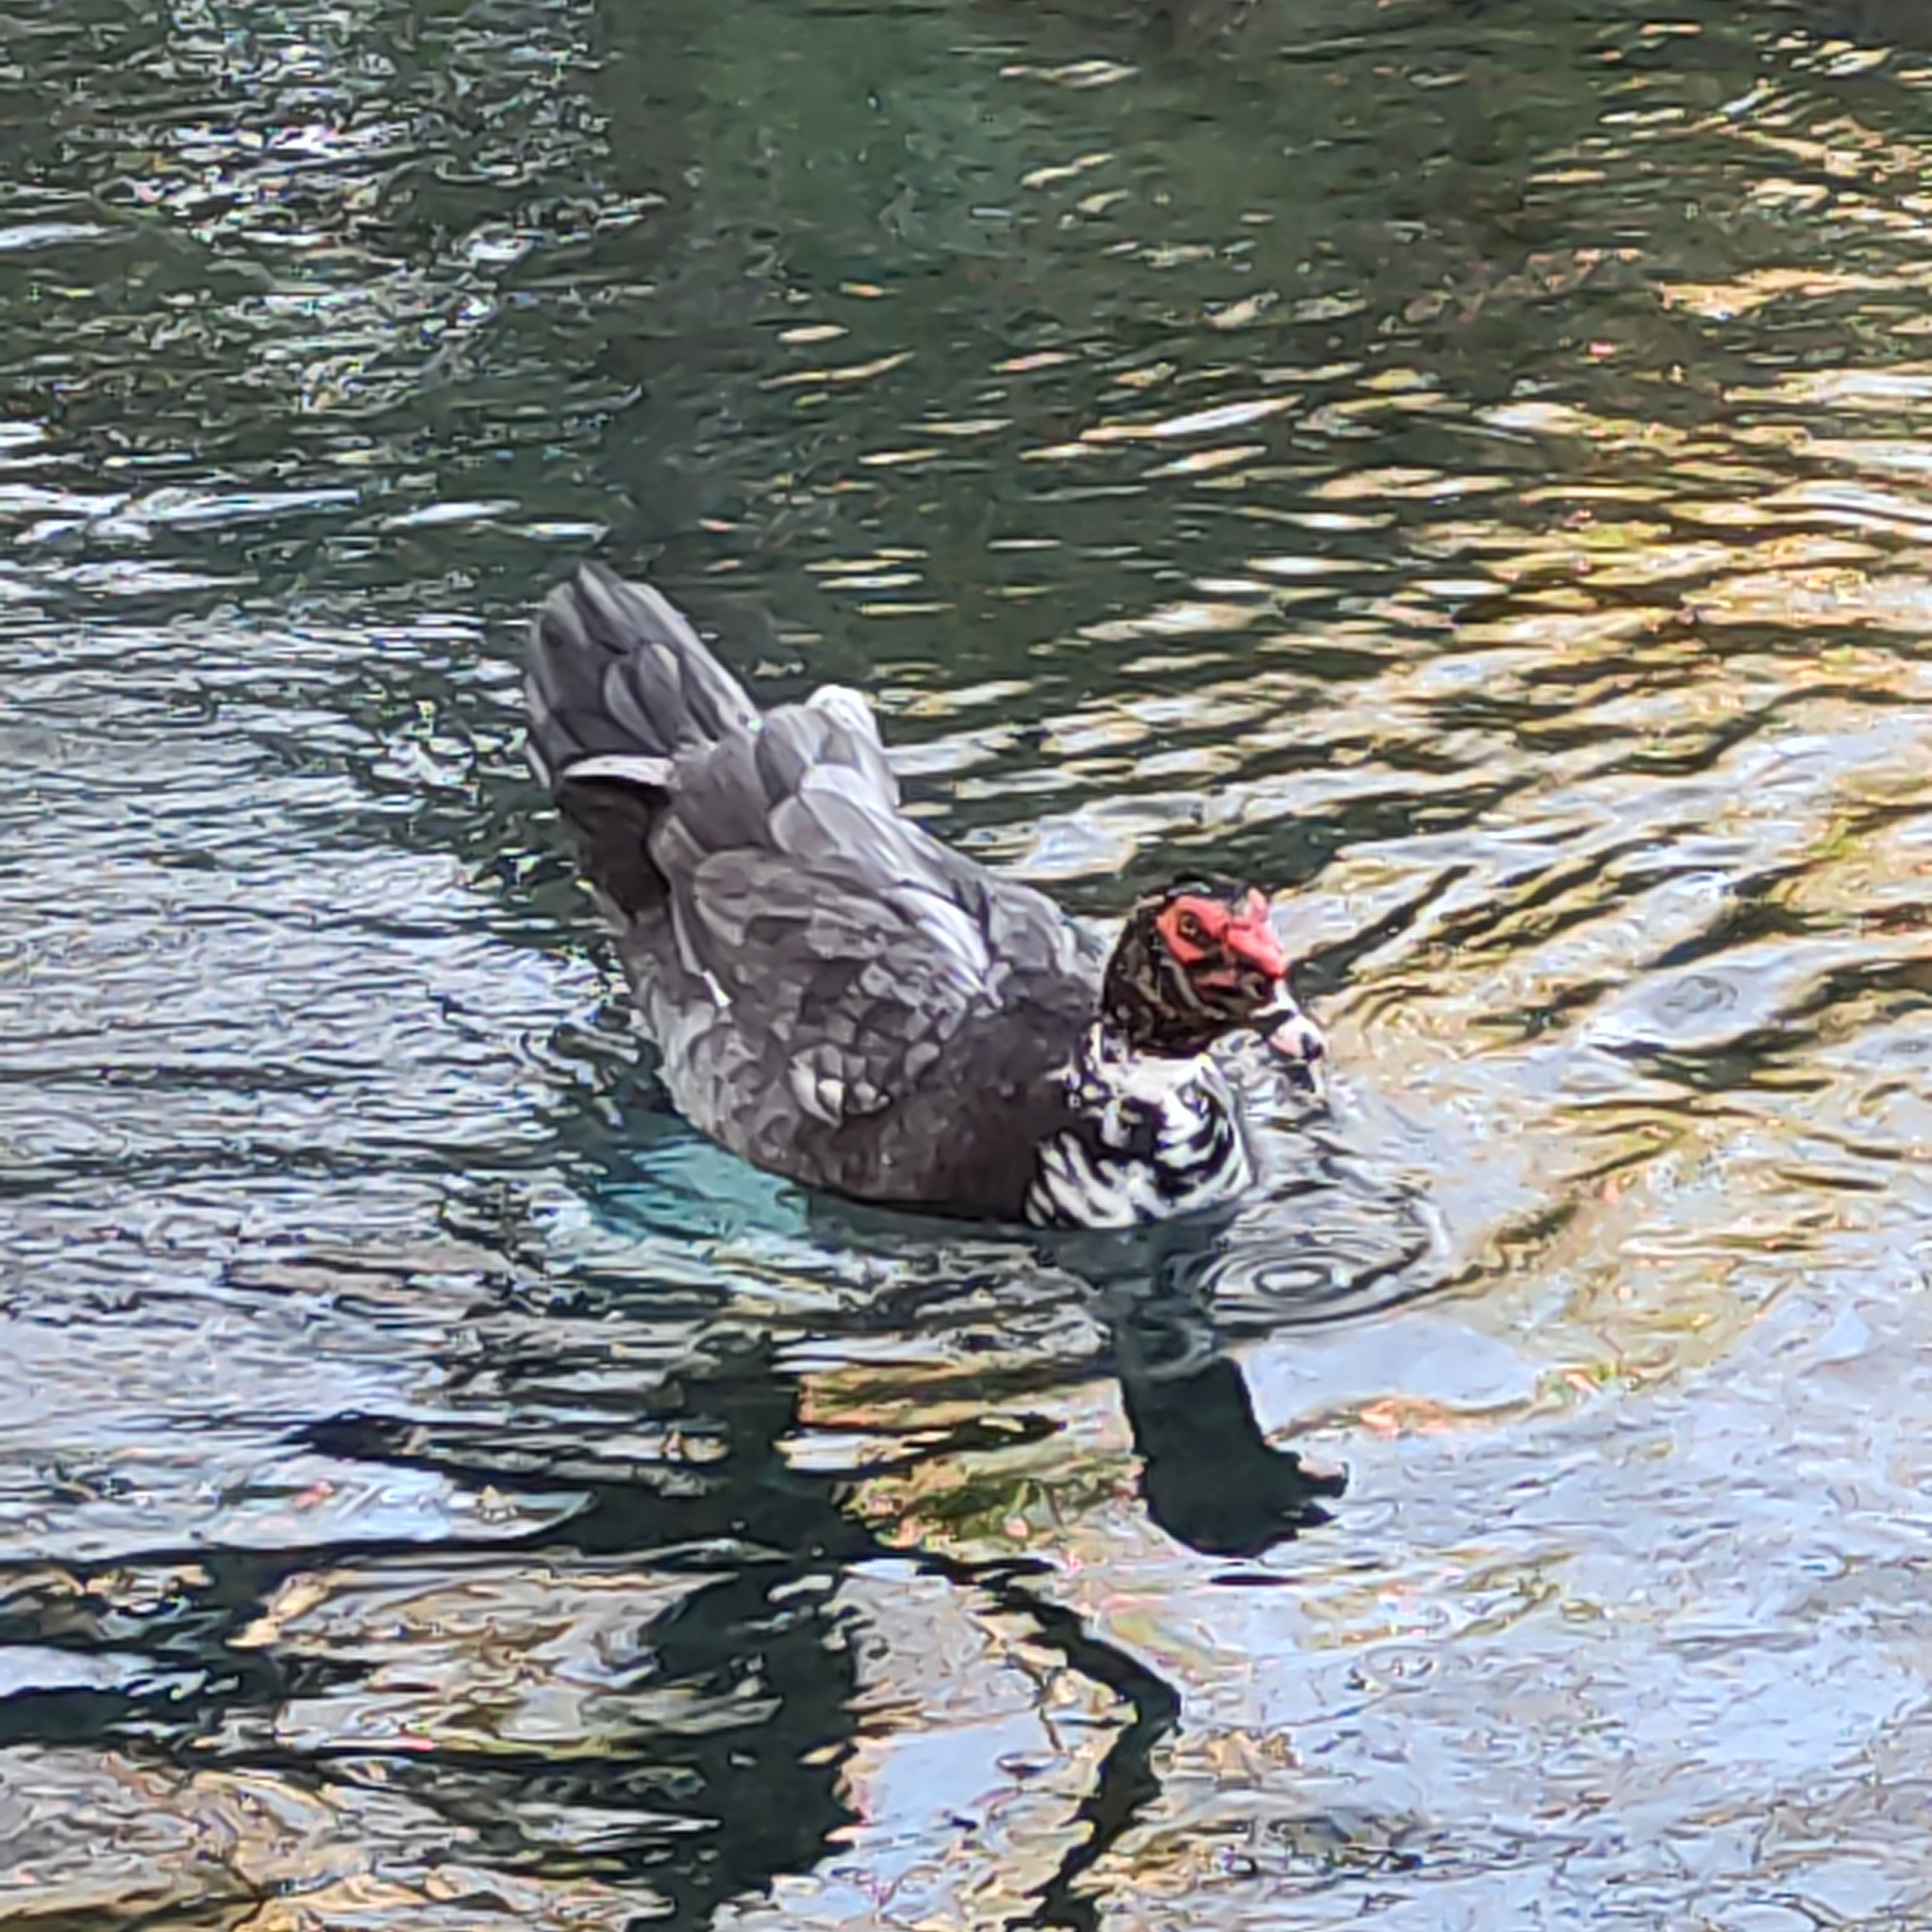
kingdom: Animalia
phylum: Chordata
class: Aves
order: Anseriformes
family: Anatidae
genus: Cairina
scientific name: Cairina moschata
